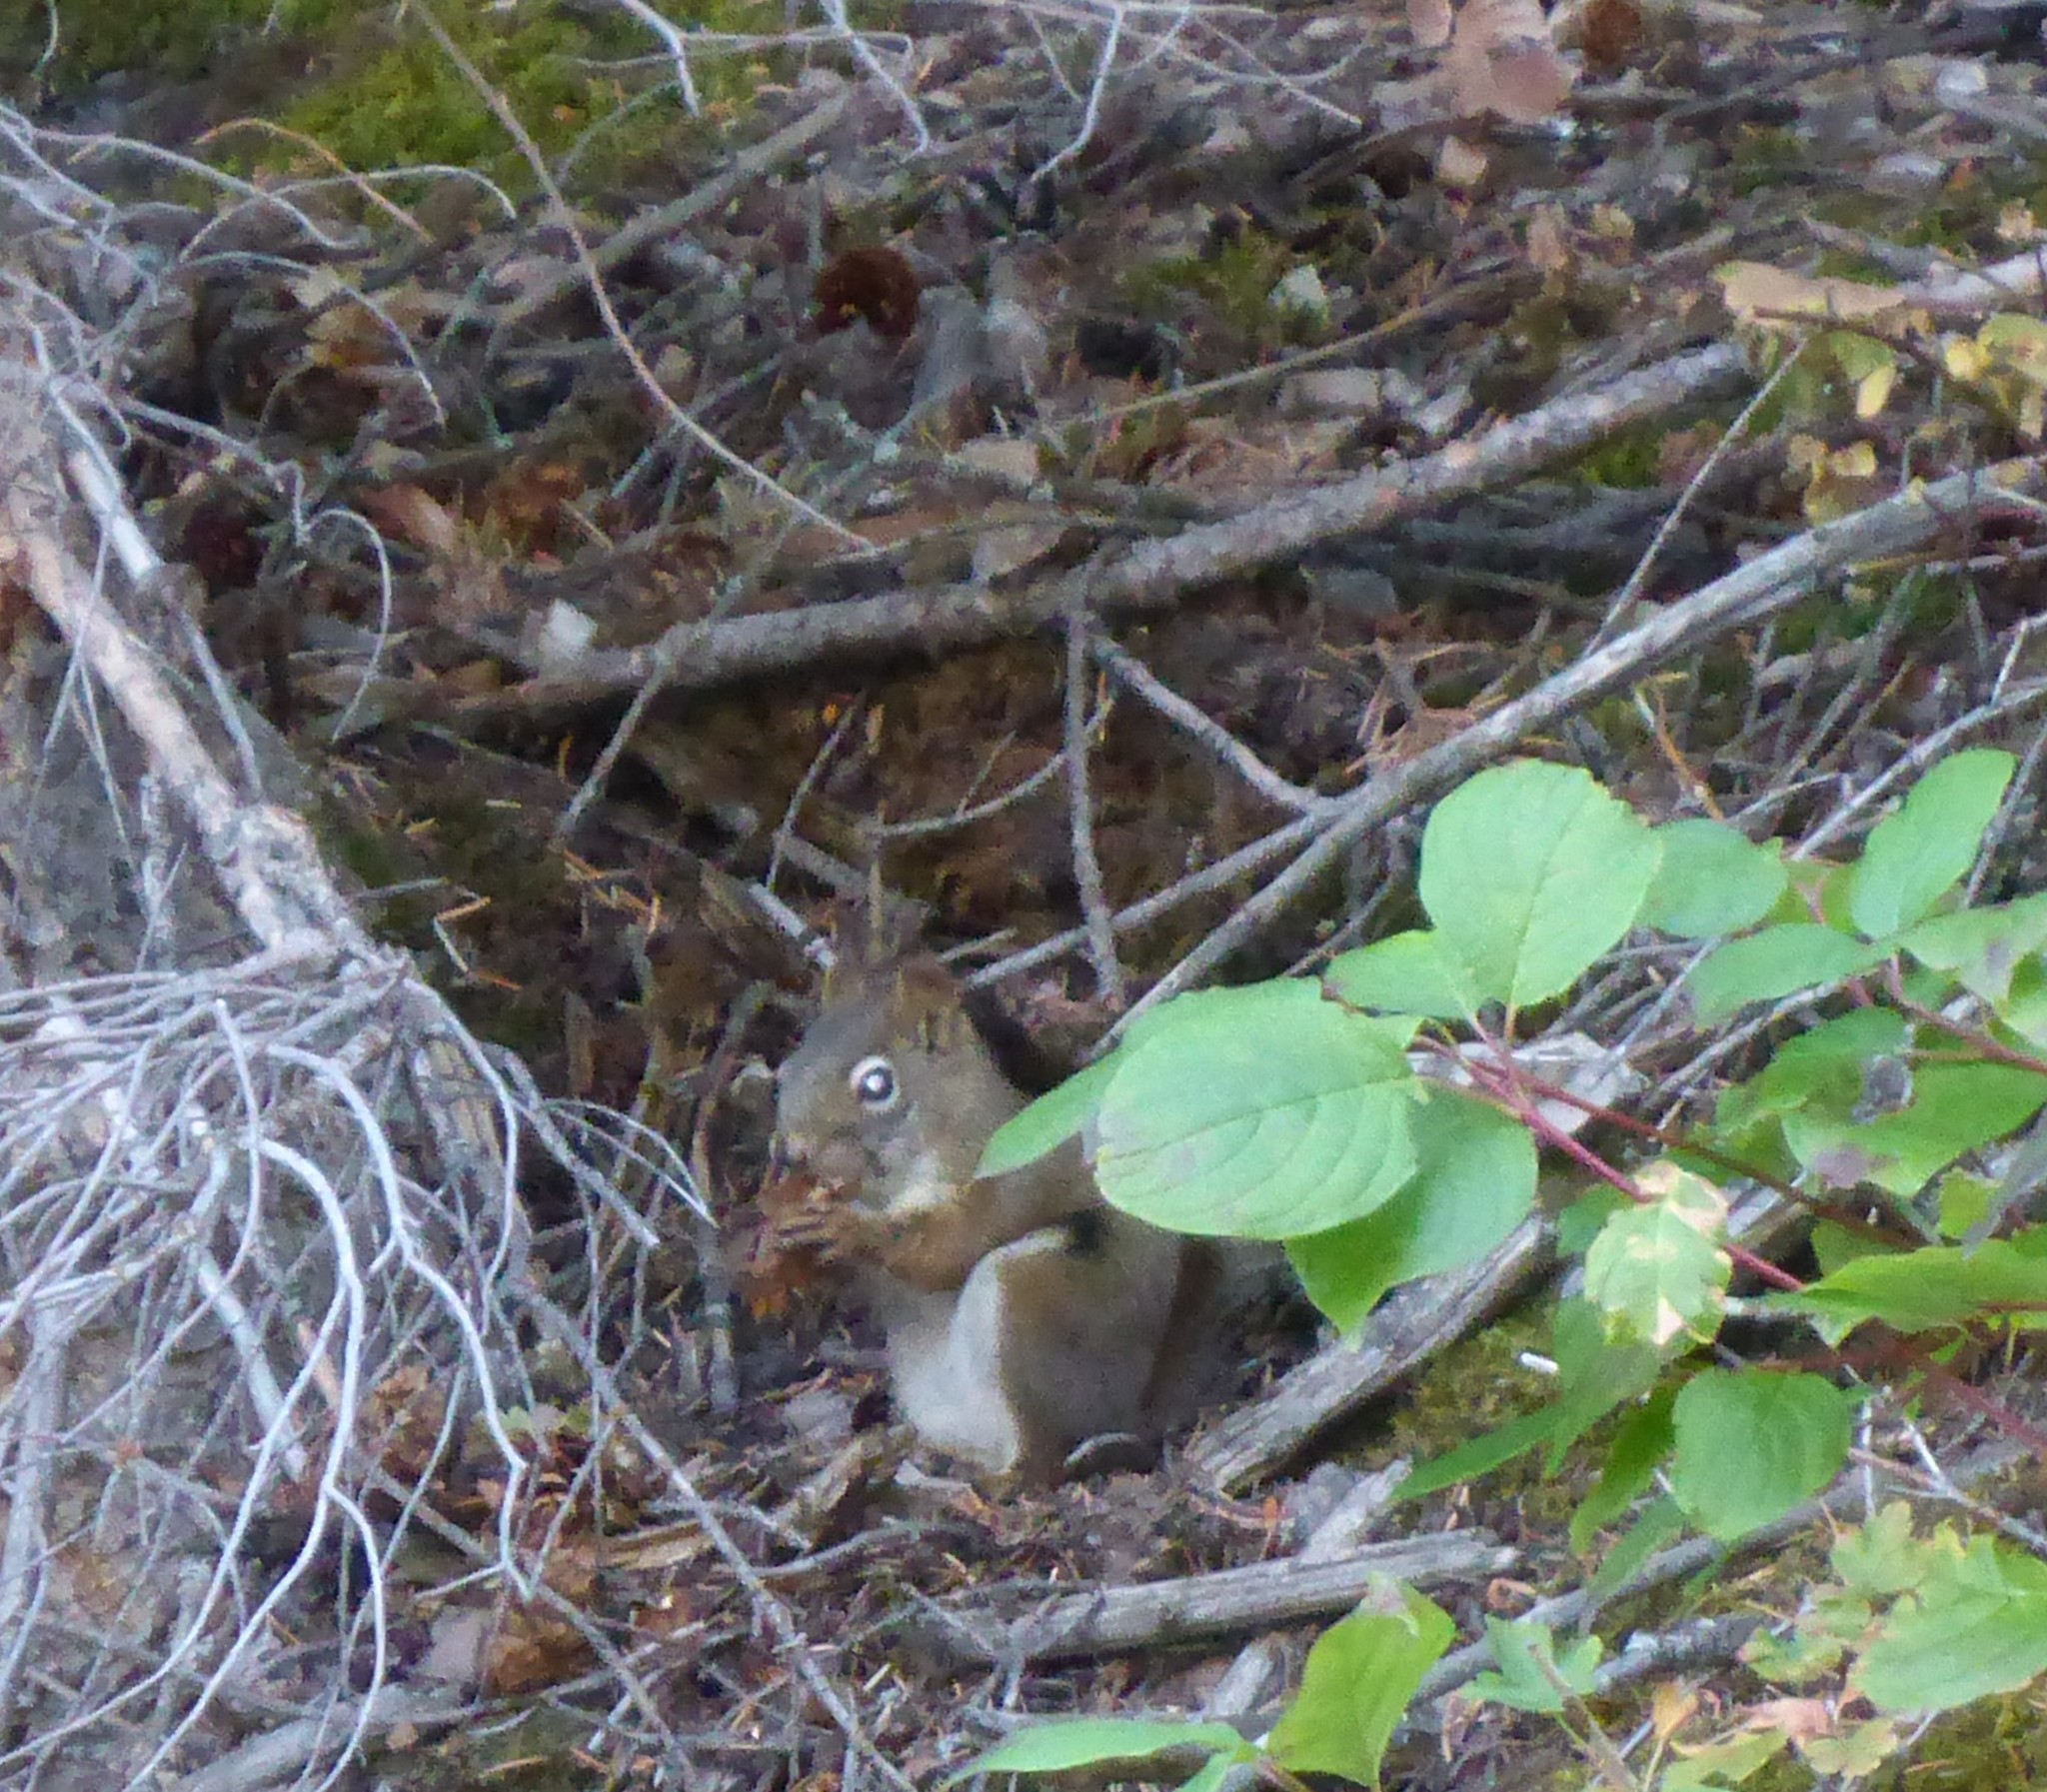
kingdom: Animalia
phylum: Chordata
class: Mammalia
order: Rodentia
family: Sciuridae
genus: Tamiasciurus
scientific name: Tamiasciurus hudsonicus
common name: Red squirrel
